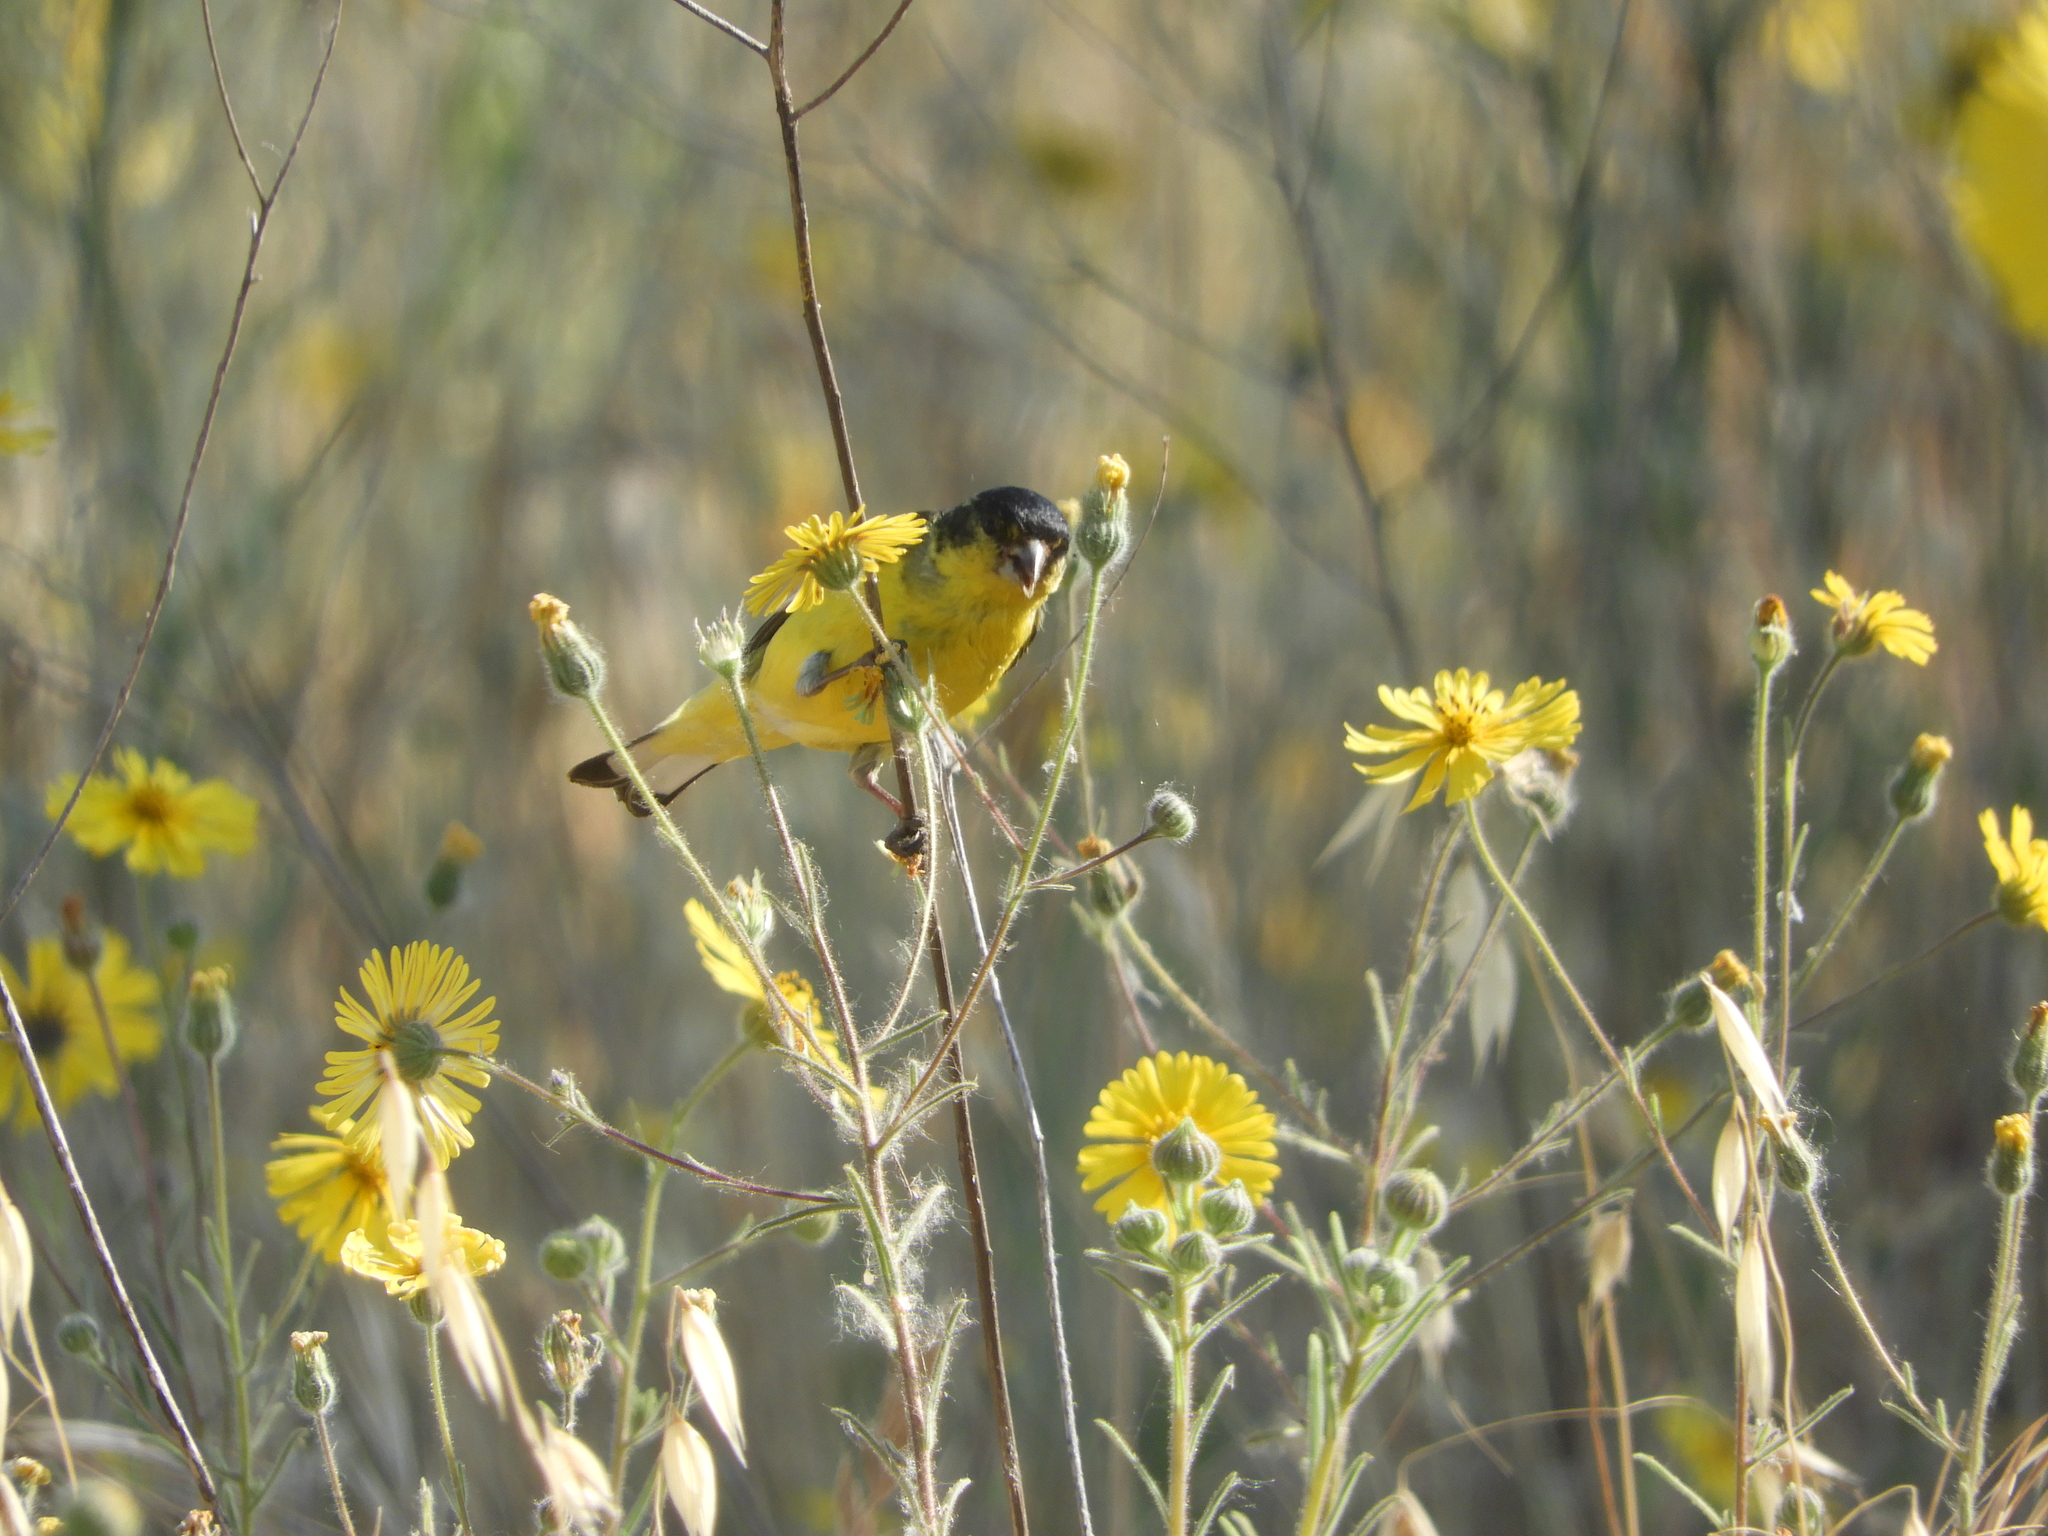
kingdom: Animalia
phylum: Chordata
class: Aves
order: Passeriformes
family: Fringillidae
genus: Spinus
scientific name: Spinus psaltria
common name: Lesser goldfinch
